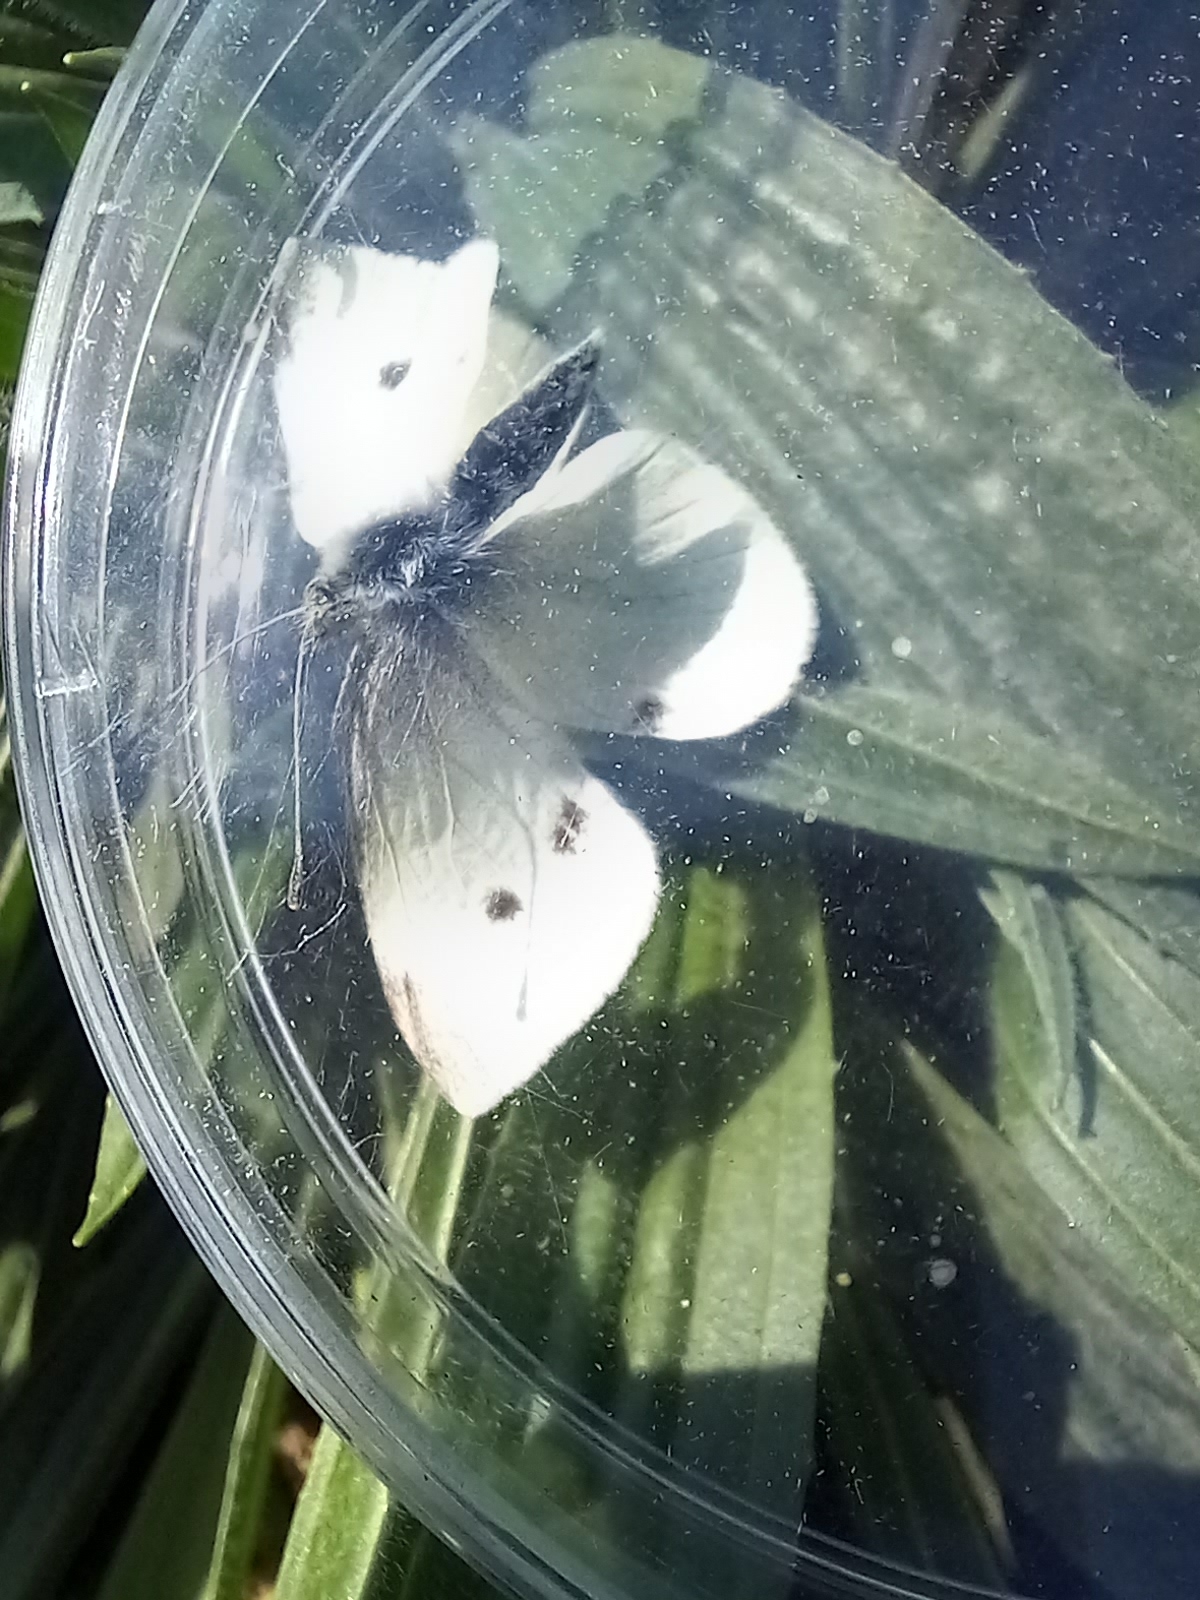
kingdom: Animalia
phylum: Arthropoda
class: Insecta
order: Lepidoptera
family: Pieridae
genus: Pieris
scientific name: Pieris rapae
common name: Small white
